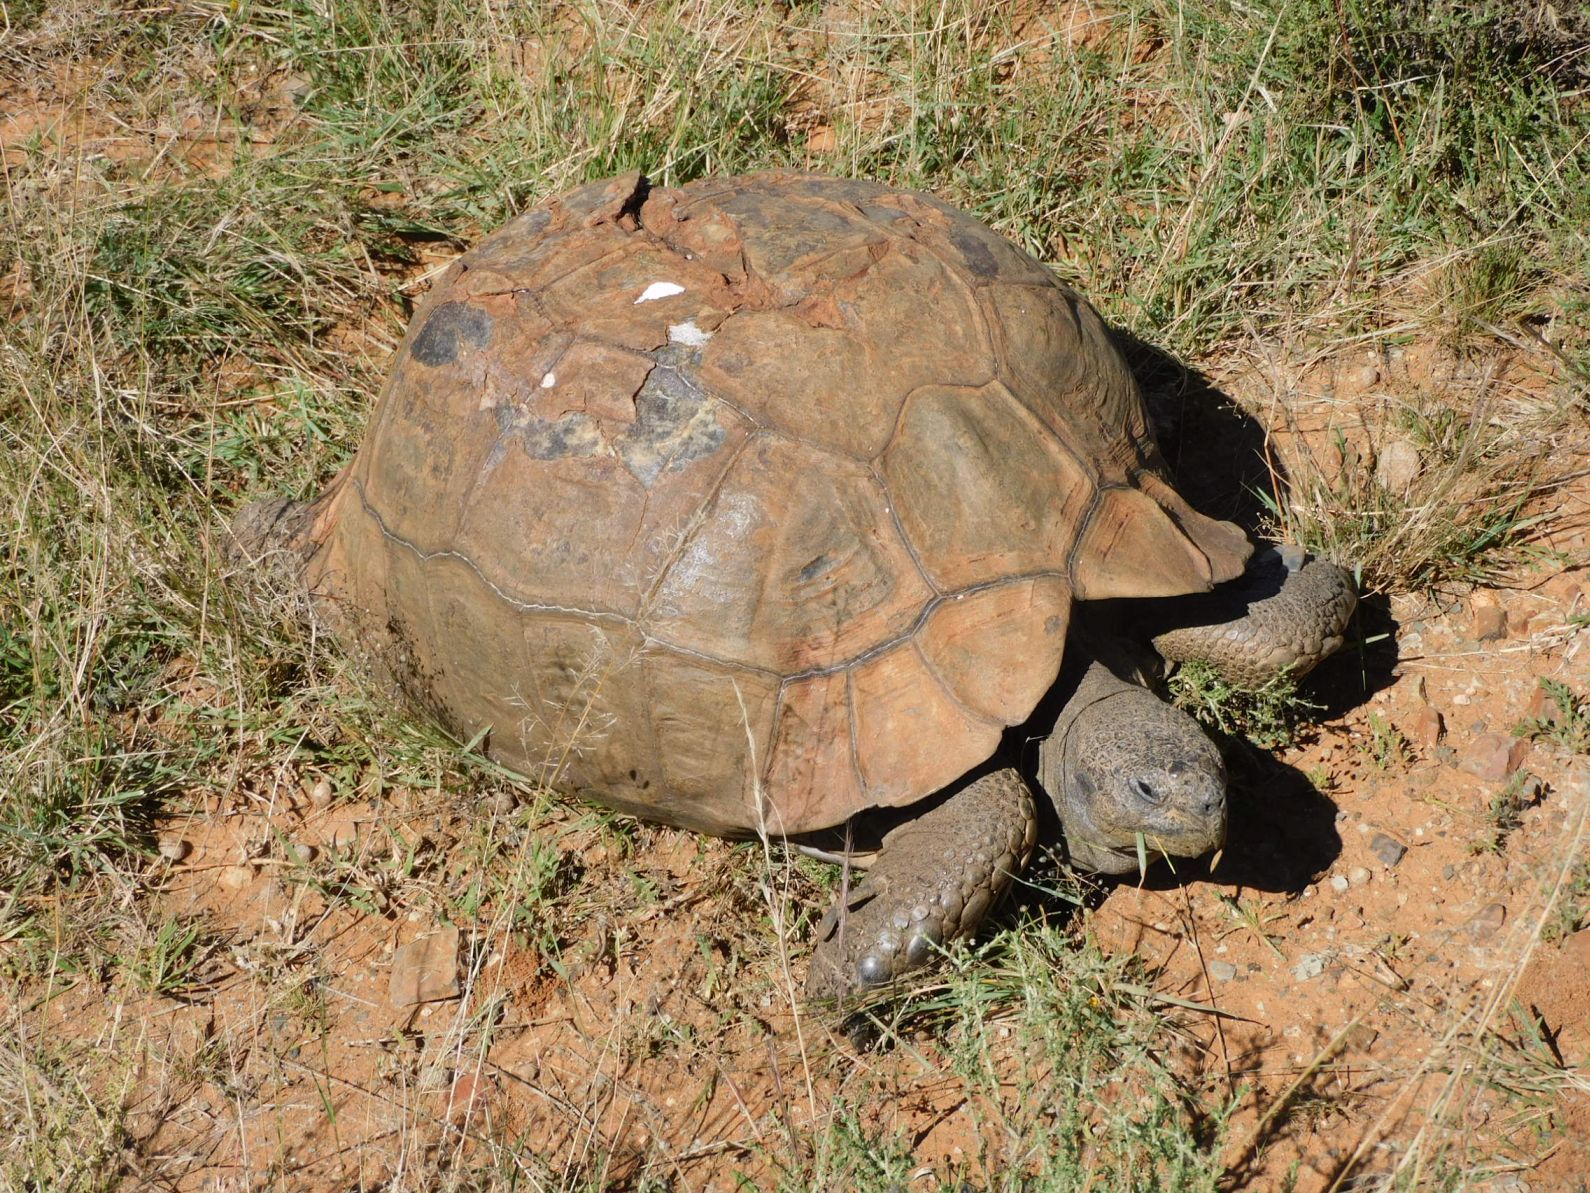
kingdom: Animalia
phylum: Chordata
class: Testudines
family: Testudinidae
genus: Stigmochelys
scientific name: Stigmochelys pardalis
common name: Leopard tortoise
